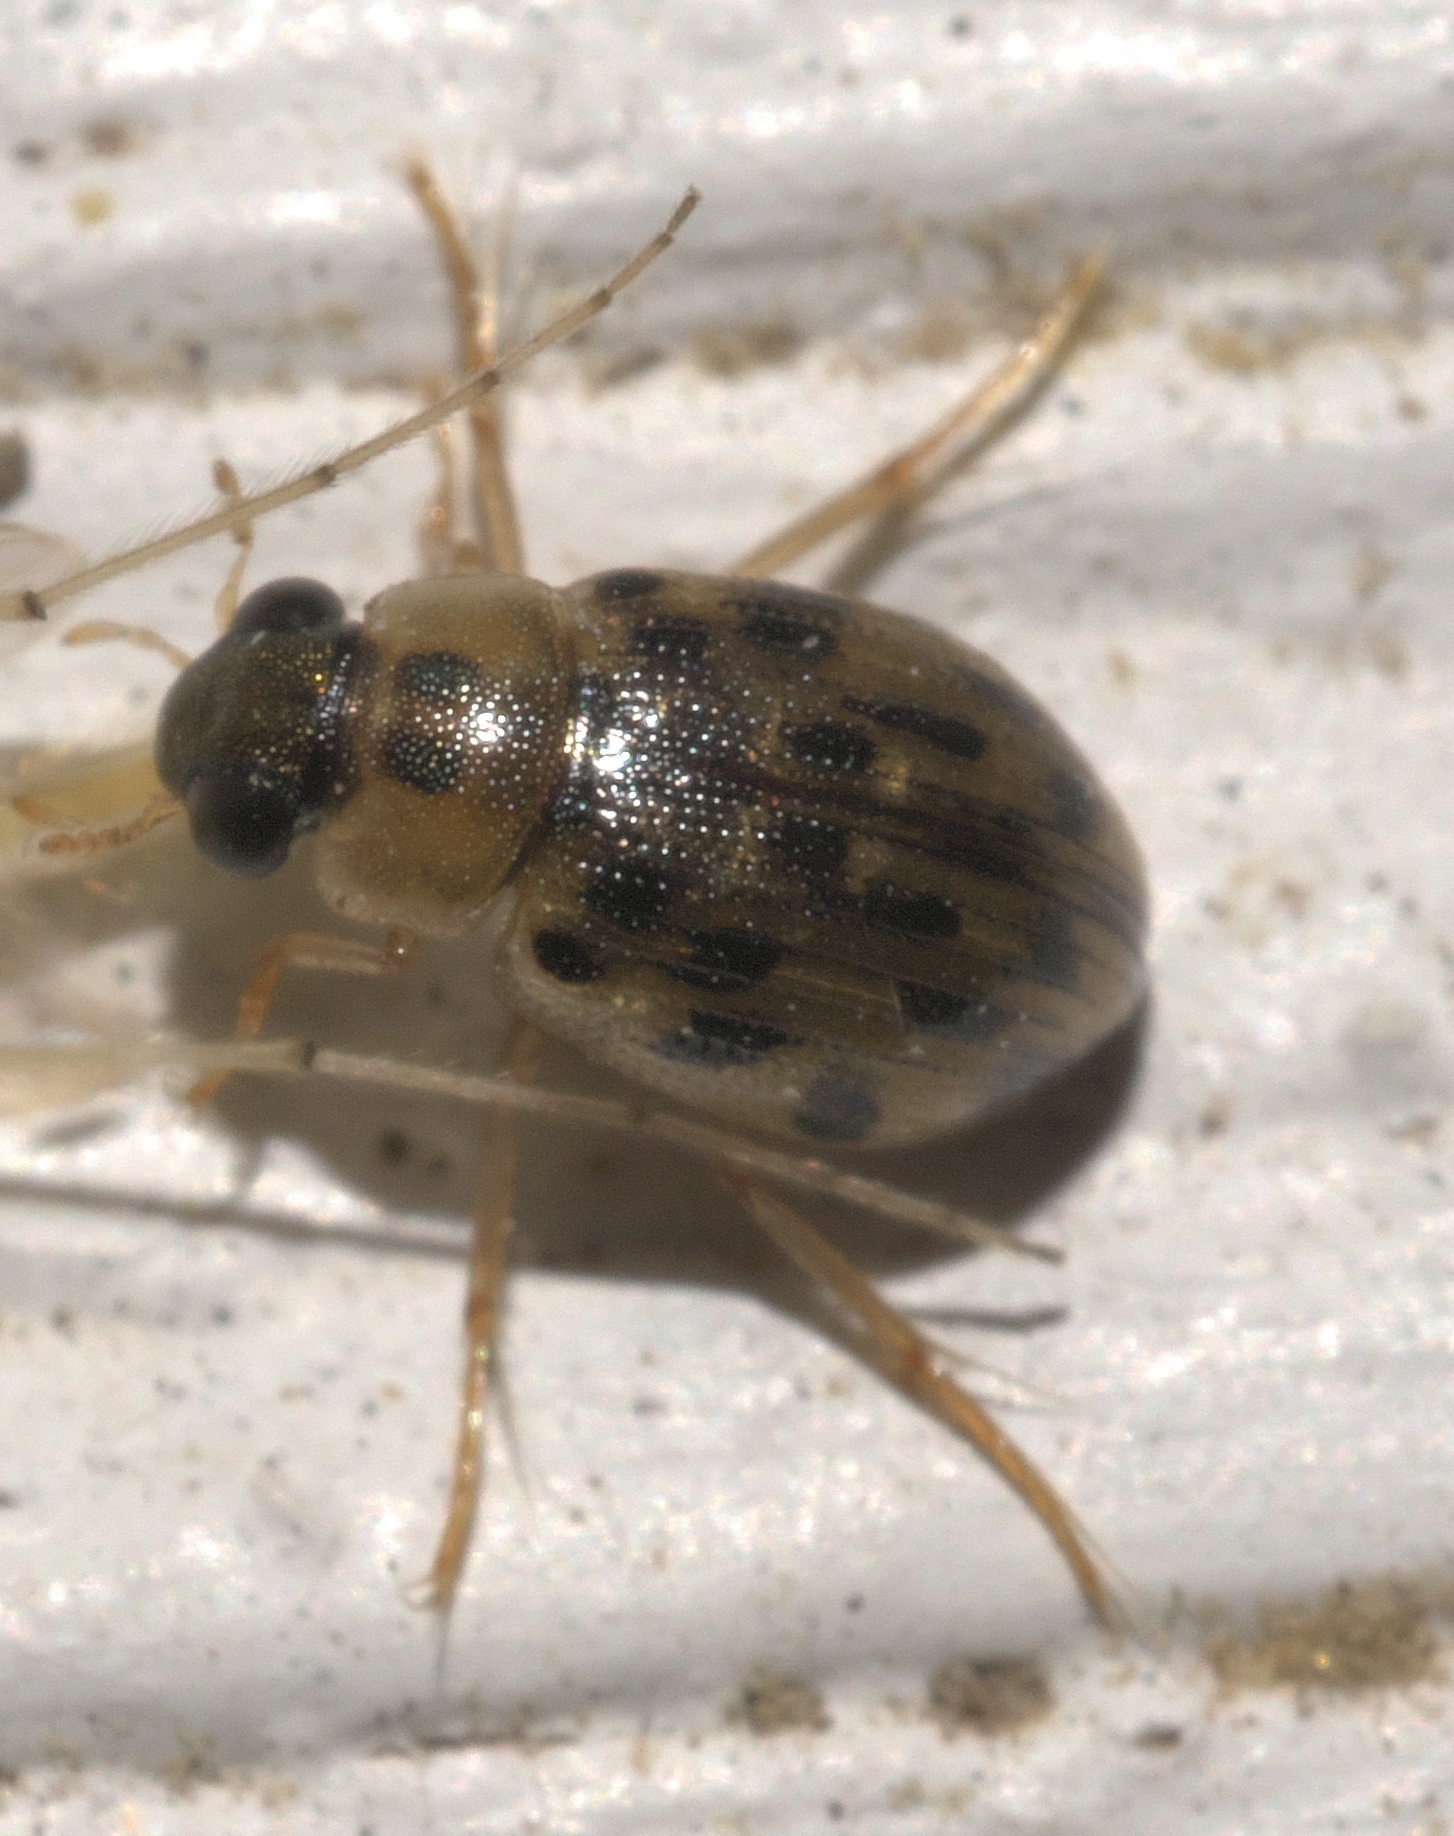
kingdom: Animalia
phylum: Arthropoda
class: Insecta
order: Coleoptera
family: Hydrophilidae
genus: Berosus
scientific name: Berosus pantherinus
